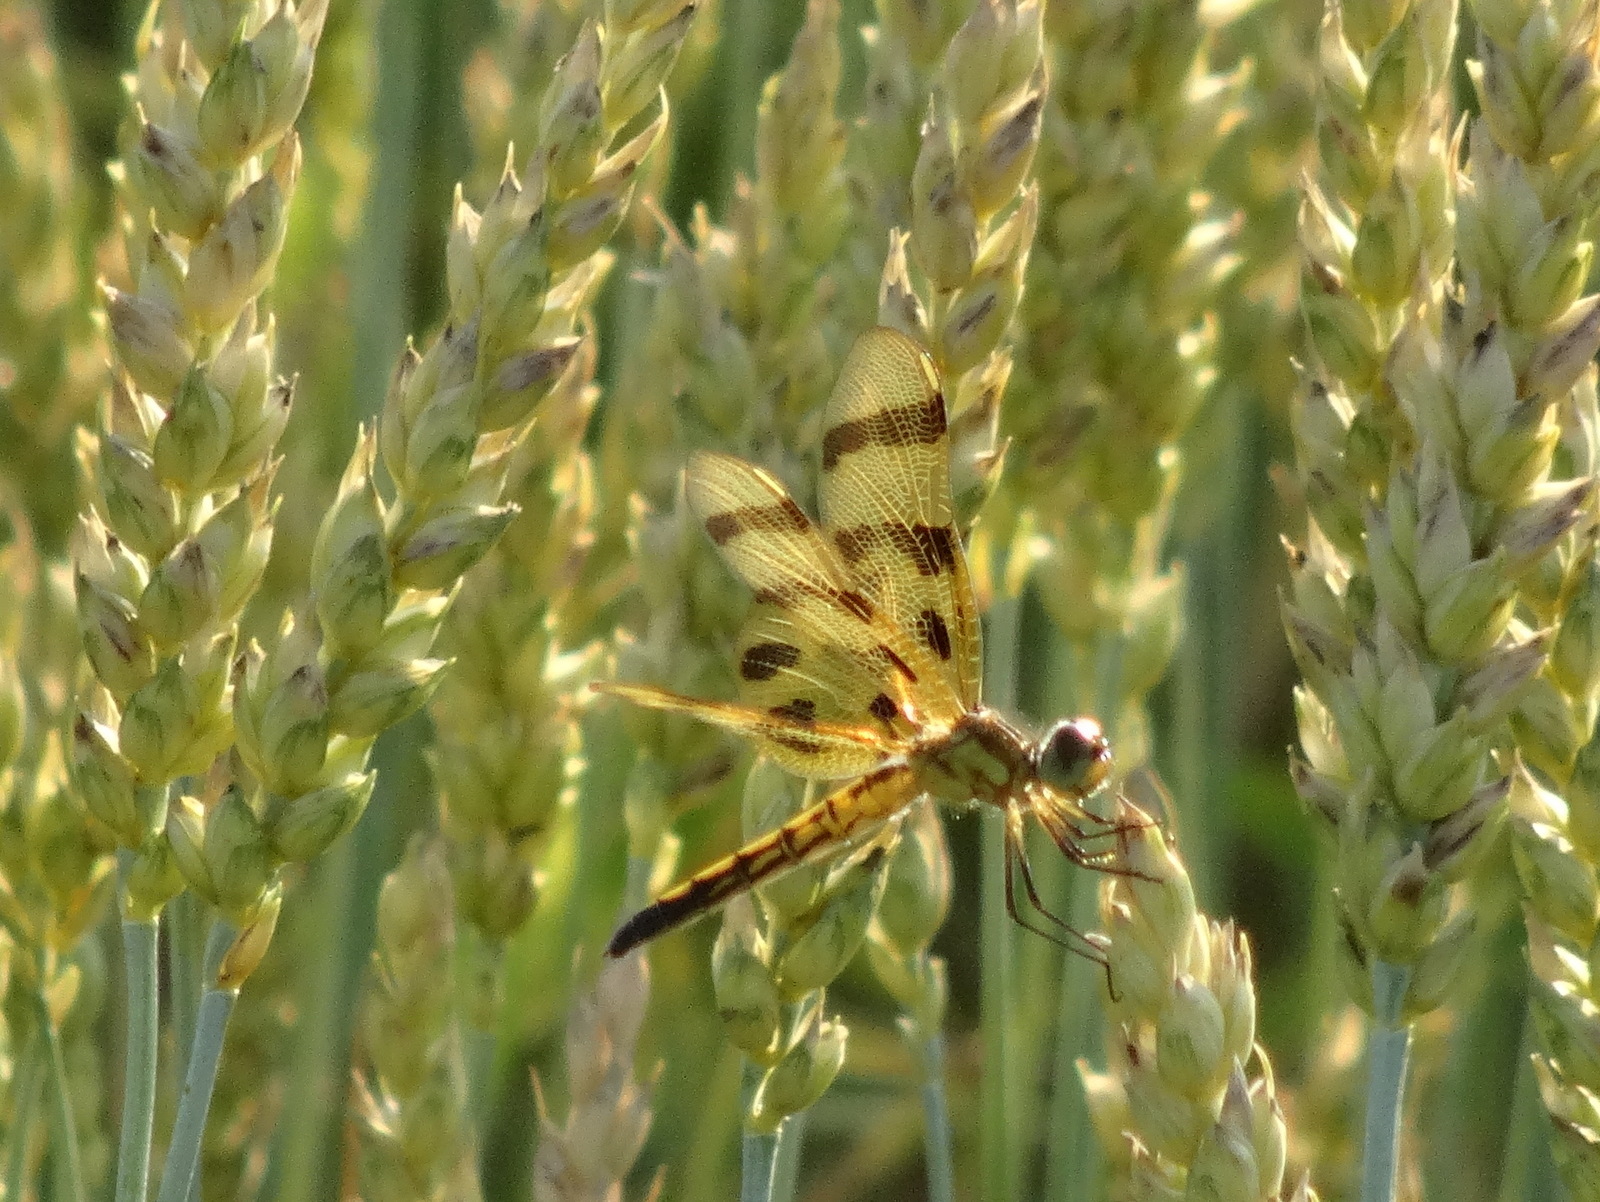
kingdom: Animalia
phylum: Arthropoda
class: Insecta
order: Odonata
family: Libellulidae
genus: Celithemis
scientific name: Celithemis eponina
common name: Halloween pennant
